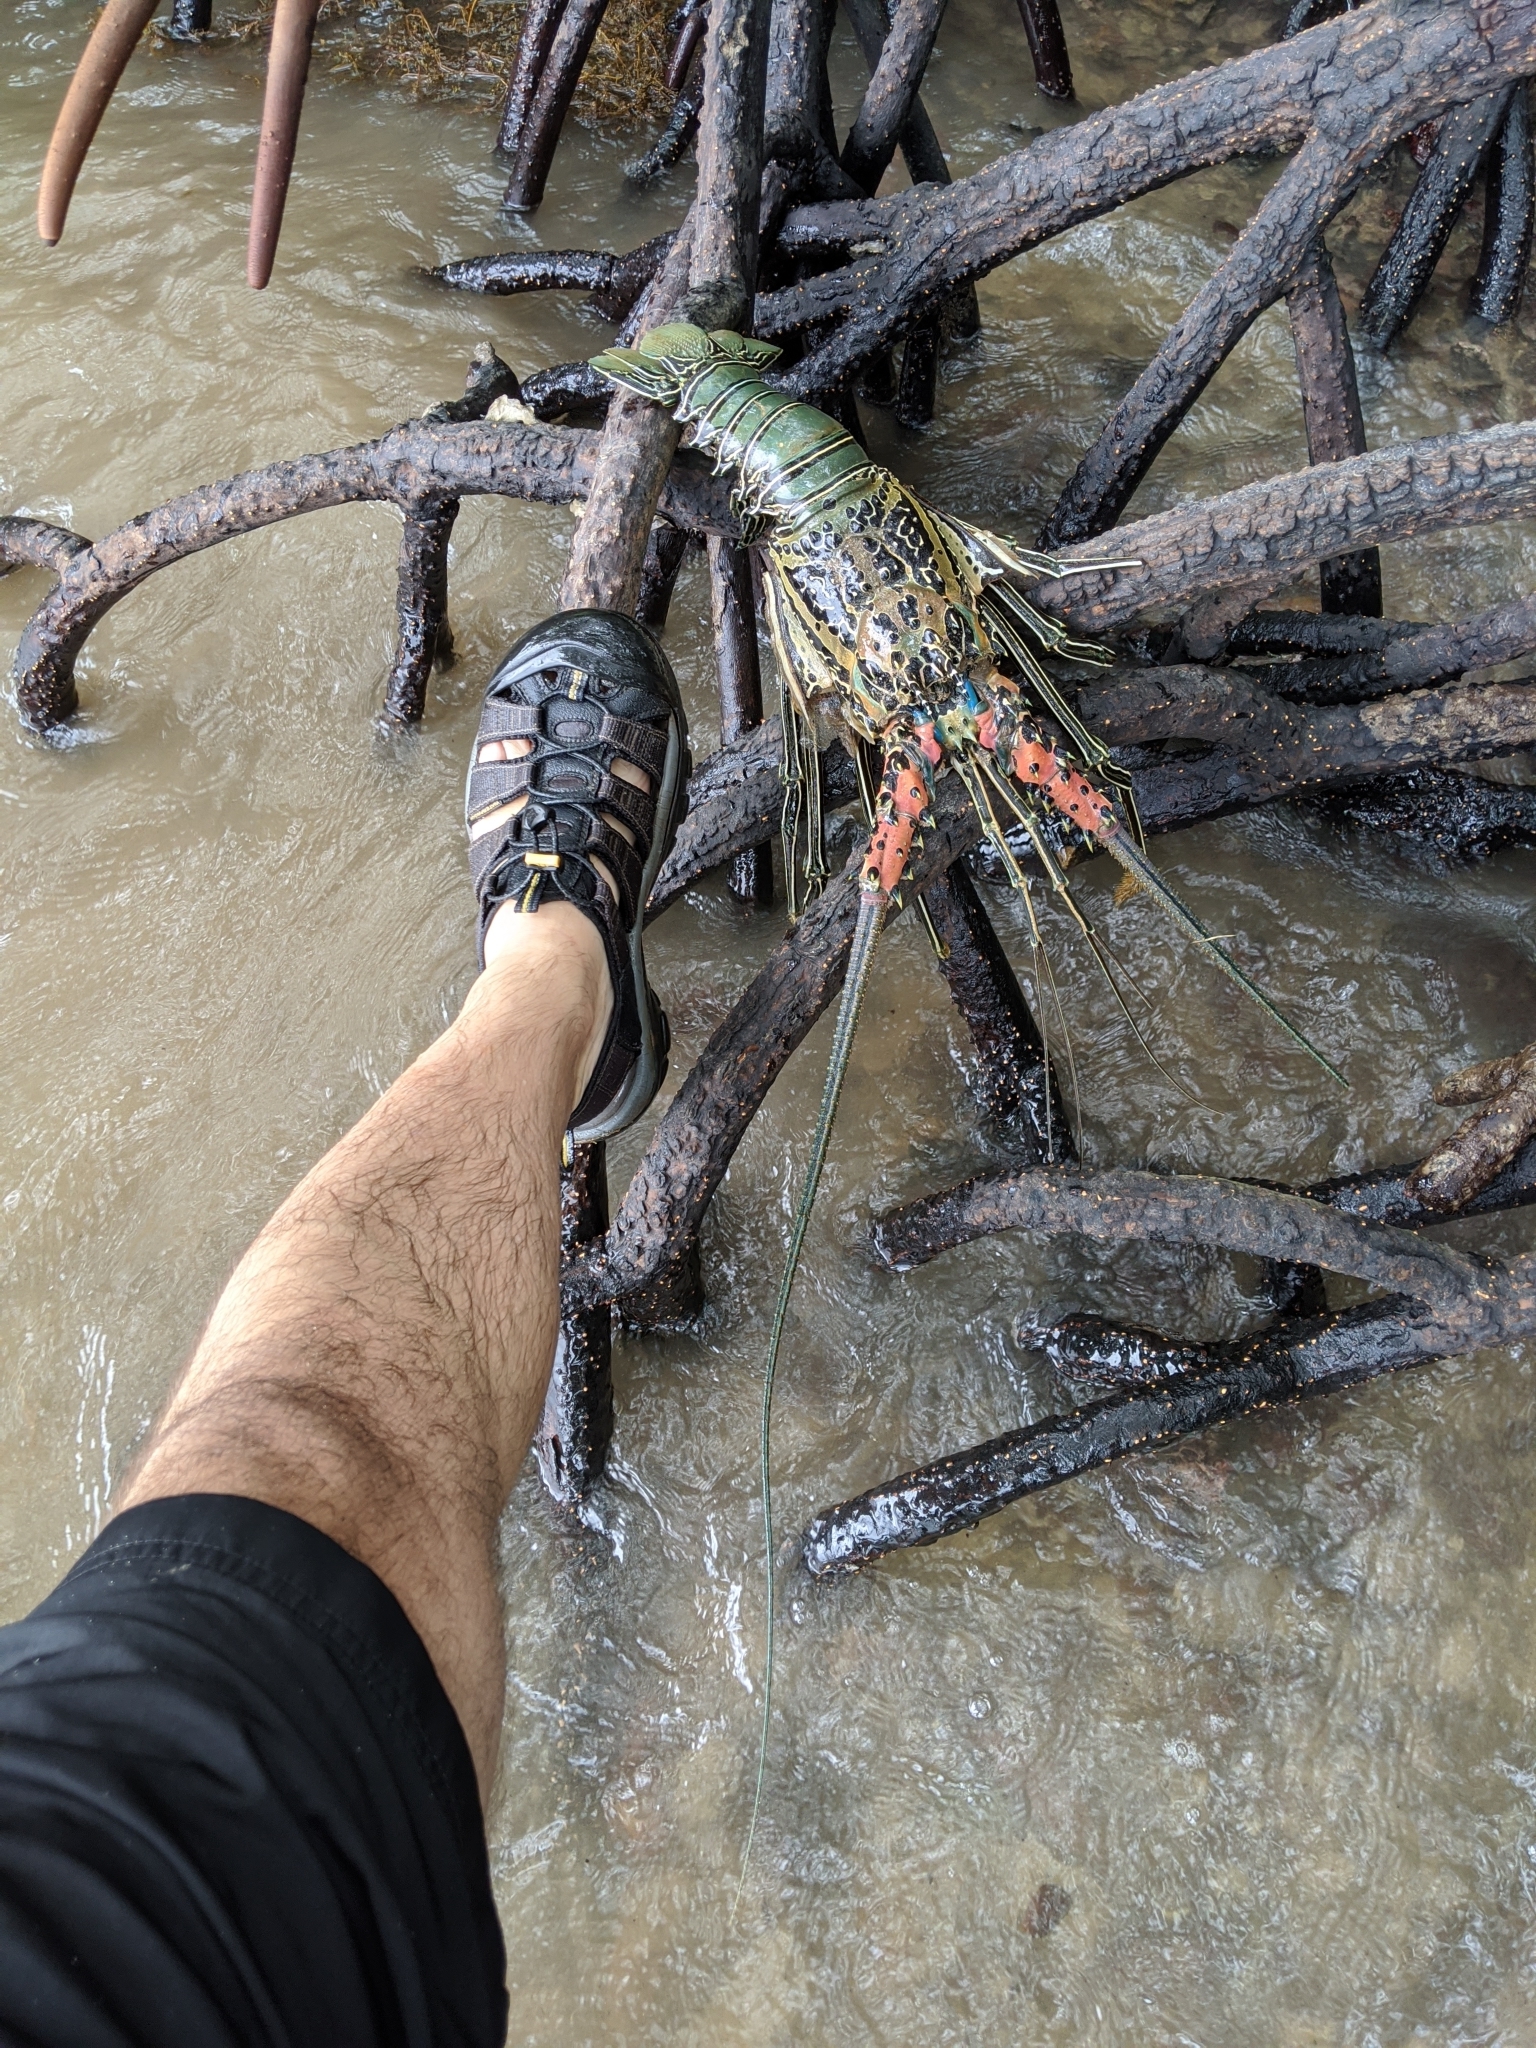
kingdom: Animalia
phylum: Arthropoda
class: Malacostraca
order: Decapoda
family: Palinuridae
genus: Panulirus
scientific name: Panulirus versicolor
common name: Painted spiny lobster
